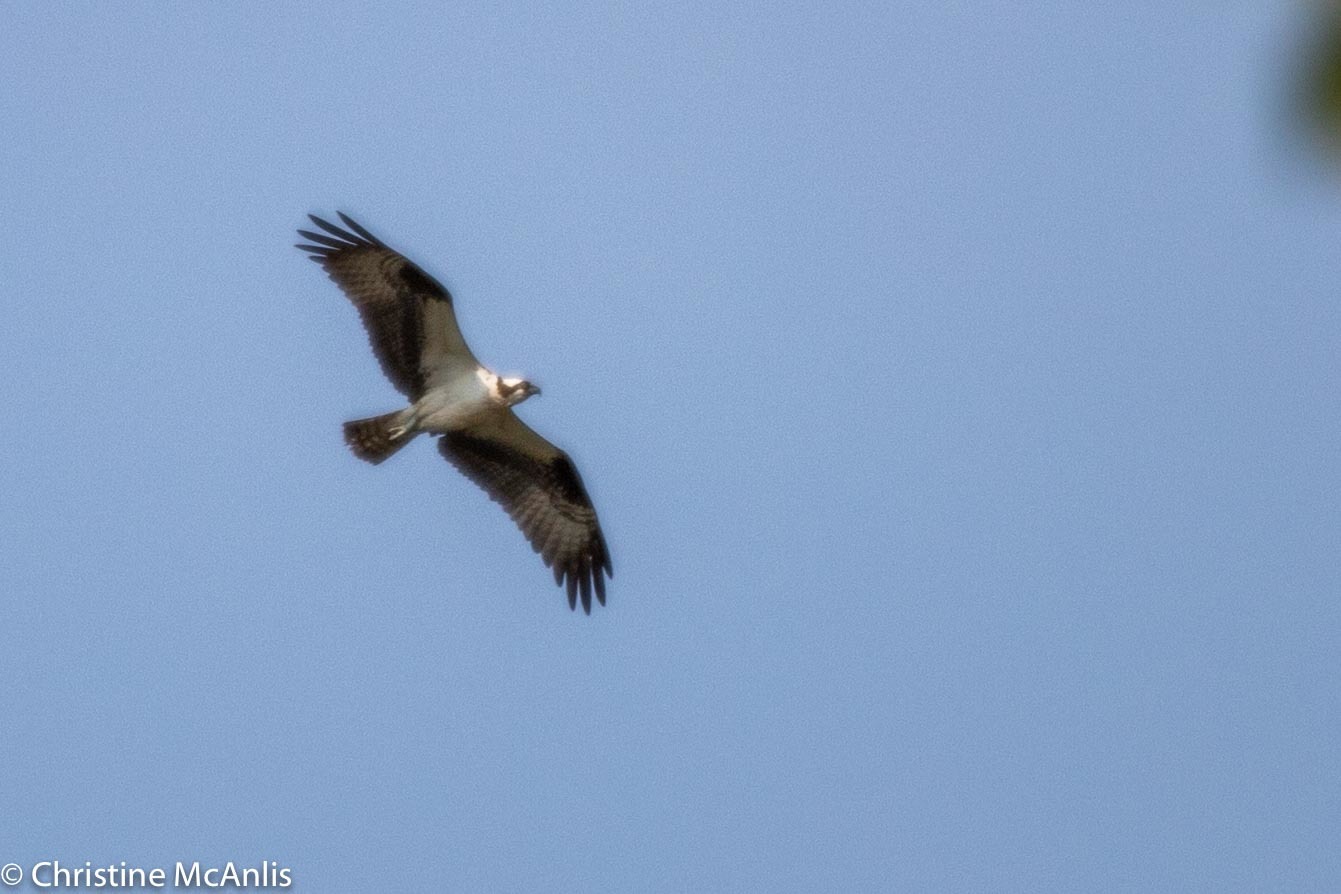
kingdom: Animalia
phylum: Chordata
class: Aves
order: Accipitriformes
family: Pandionidae
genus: Pandion
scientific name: Pandion haliaetus
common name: Osprey
